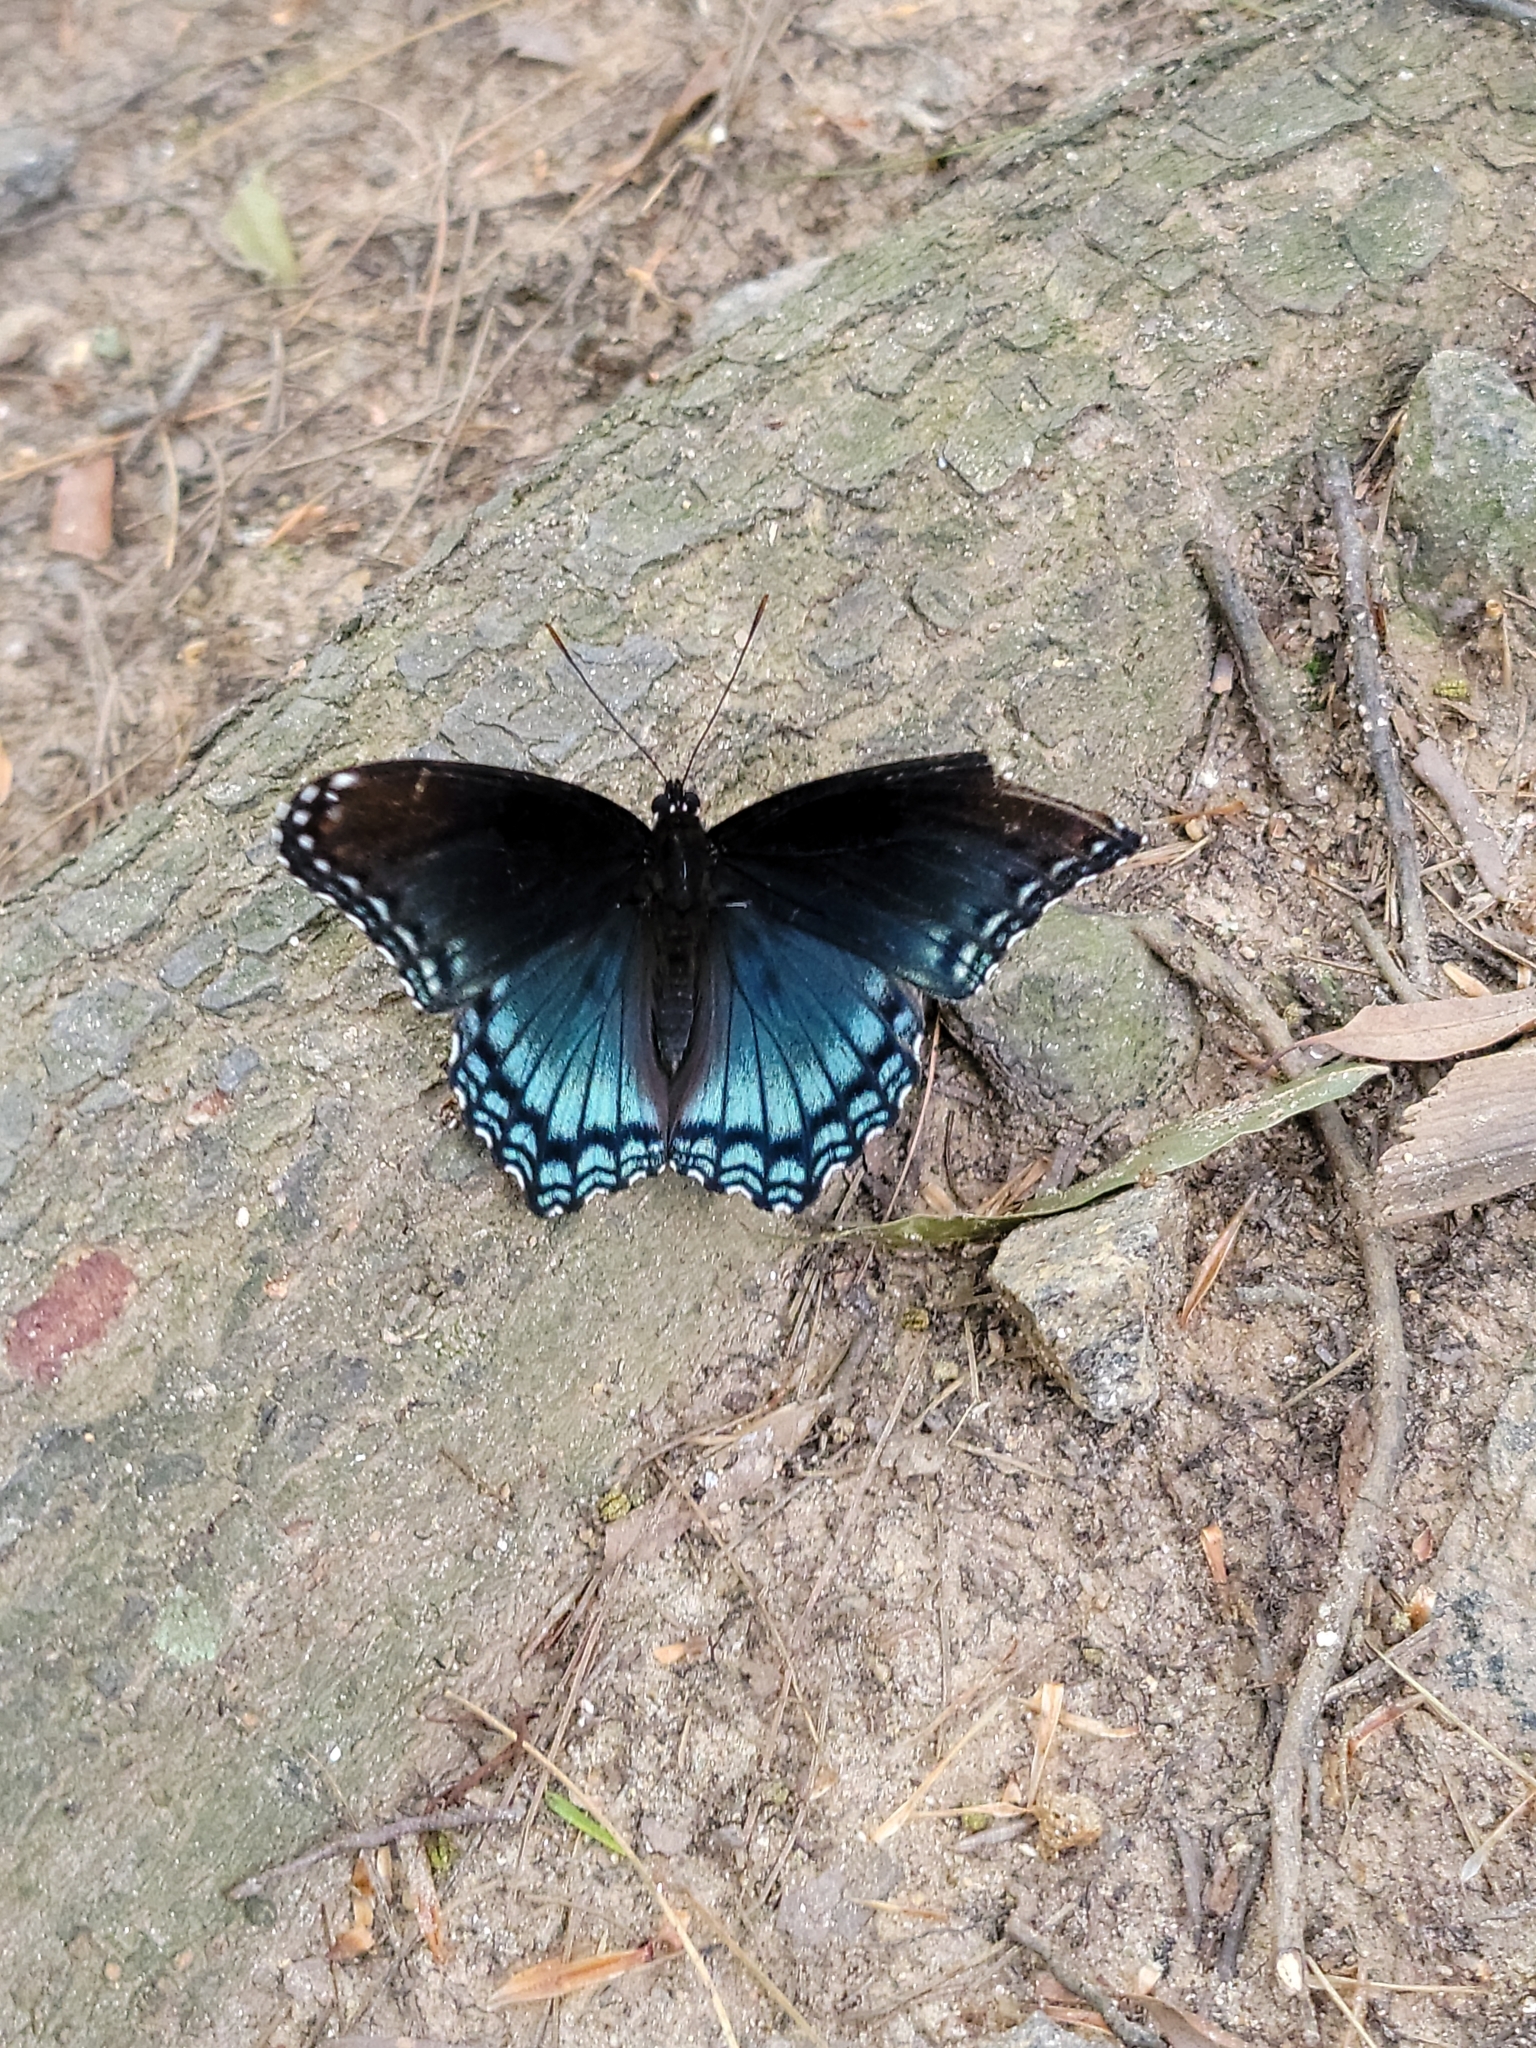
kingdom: Animalia
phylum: Arthropoda
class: Insecta
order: Lepidoptera
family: Nymphalidae
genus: Limenitis
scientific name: Limenitis astyanax
